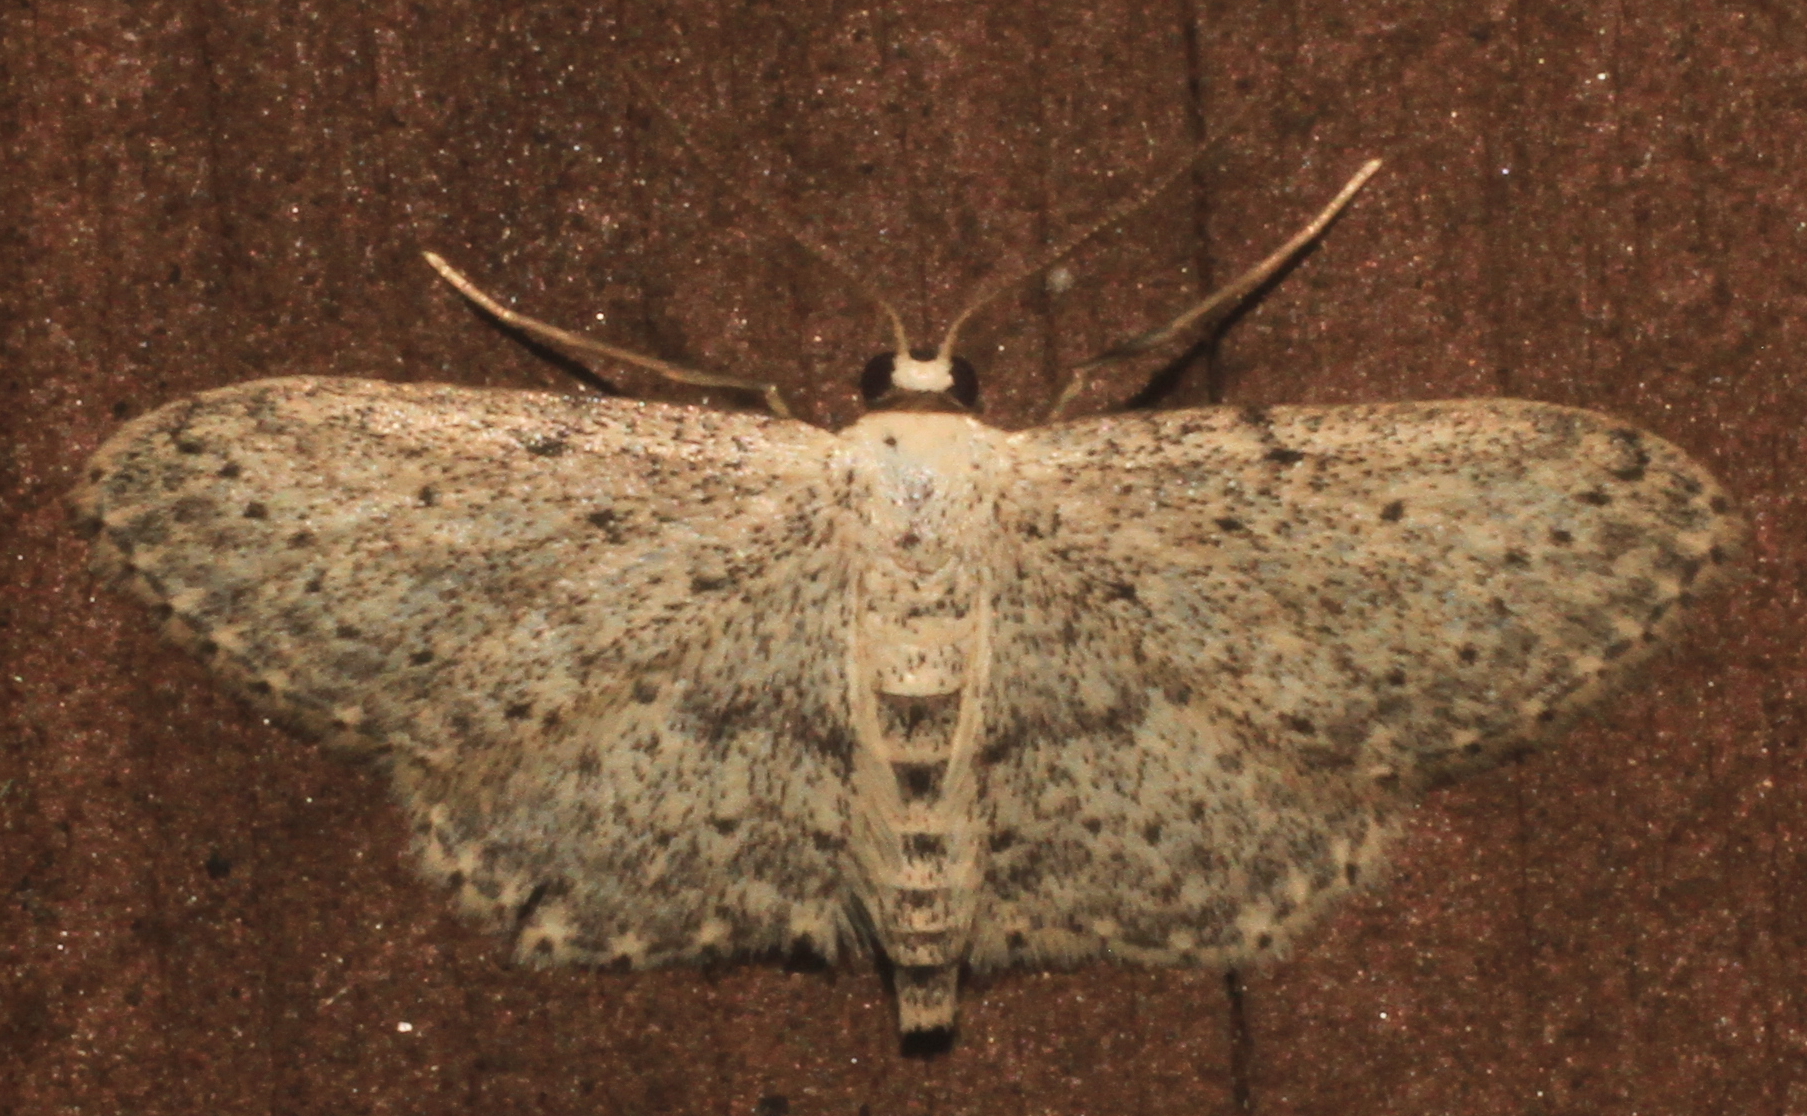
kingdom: Animalia
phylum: Arthropoda
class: Insecta
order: Lepidoptera
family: Geometridae
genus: Idaea
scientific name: Idaea seriata
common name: Small dusty wave
